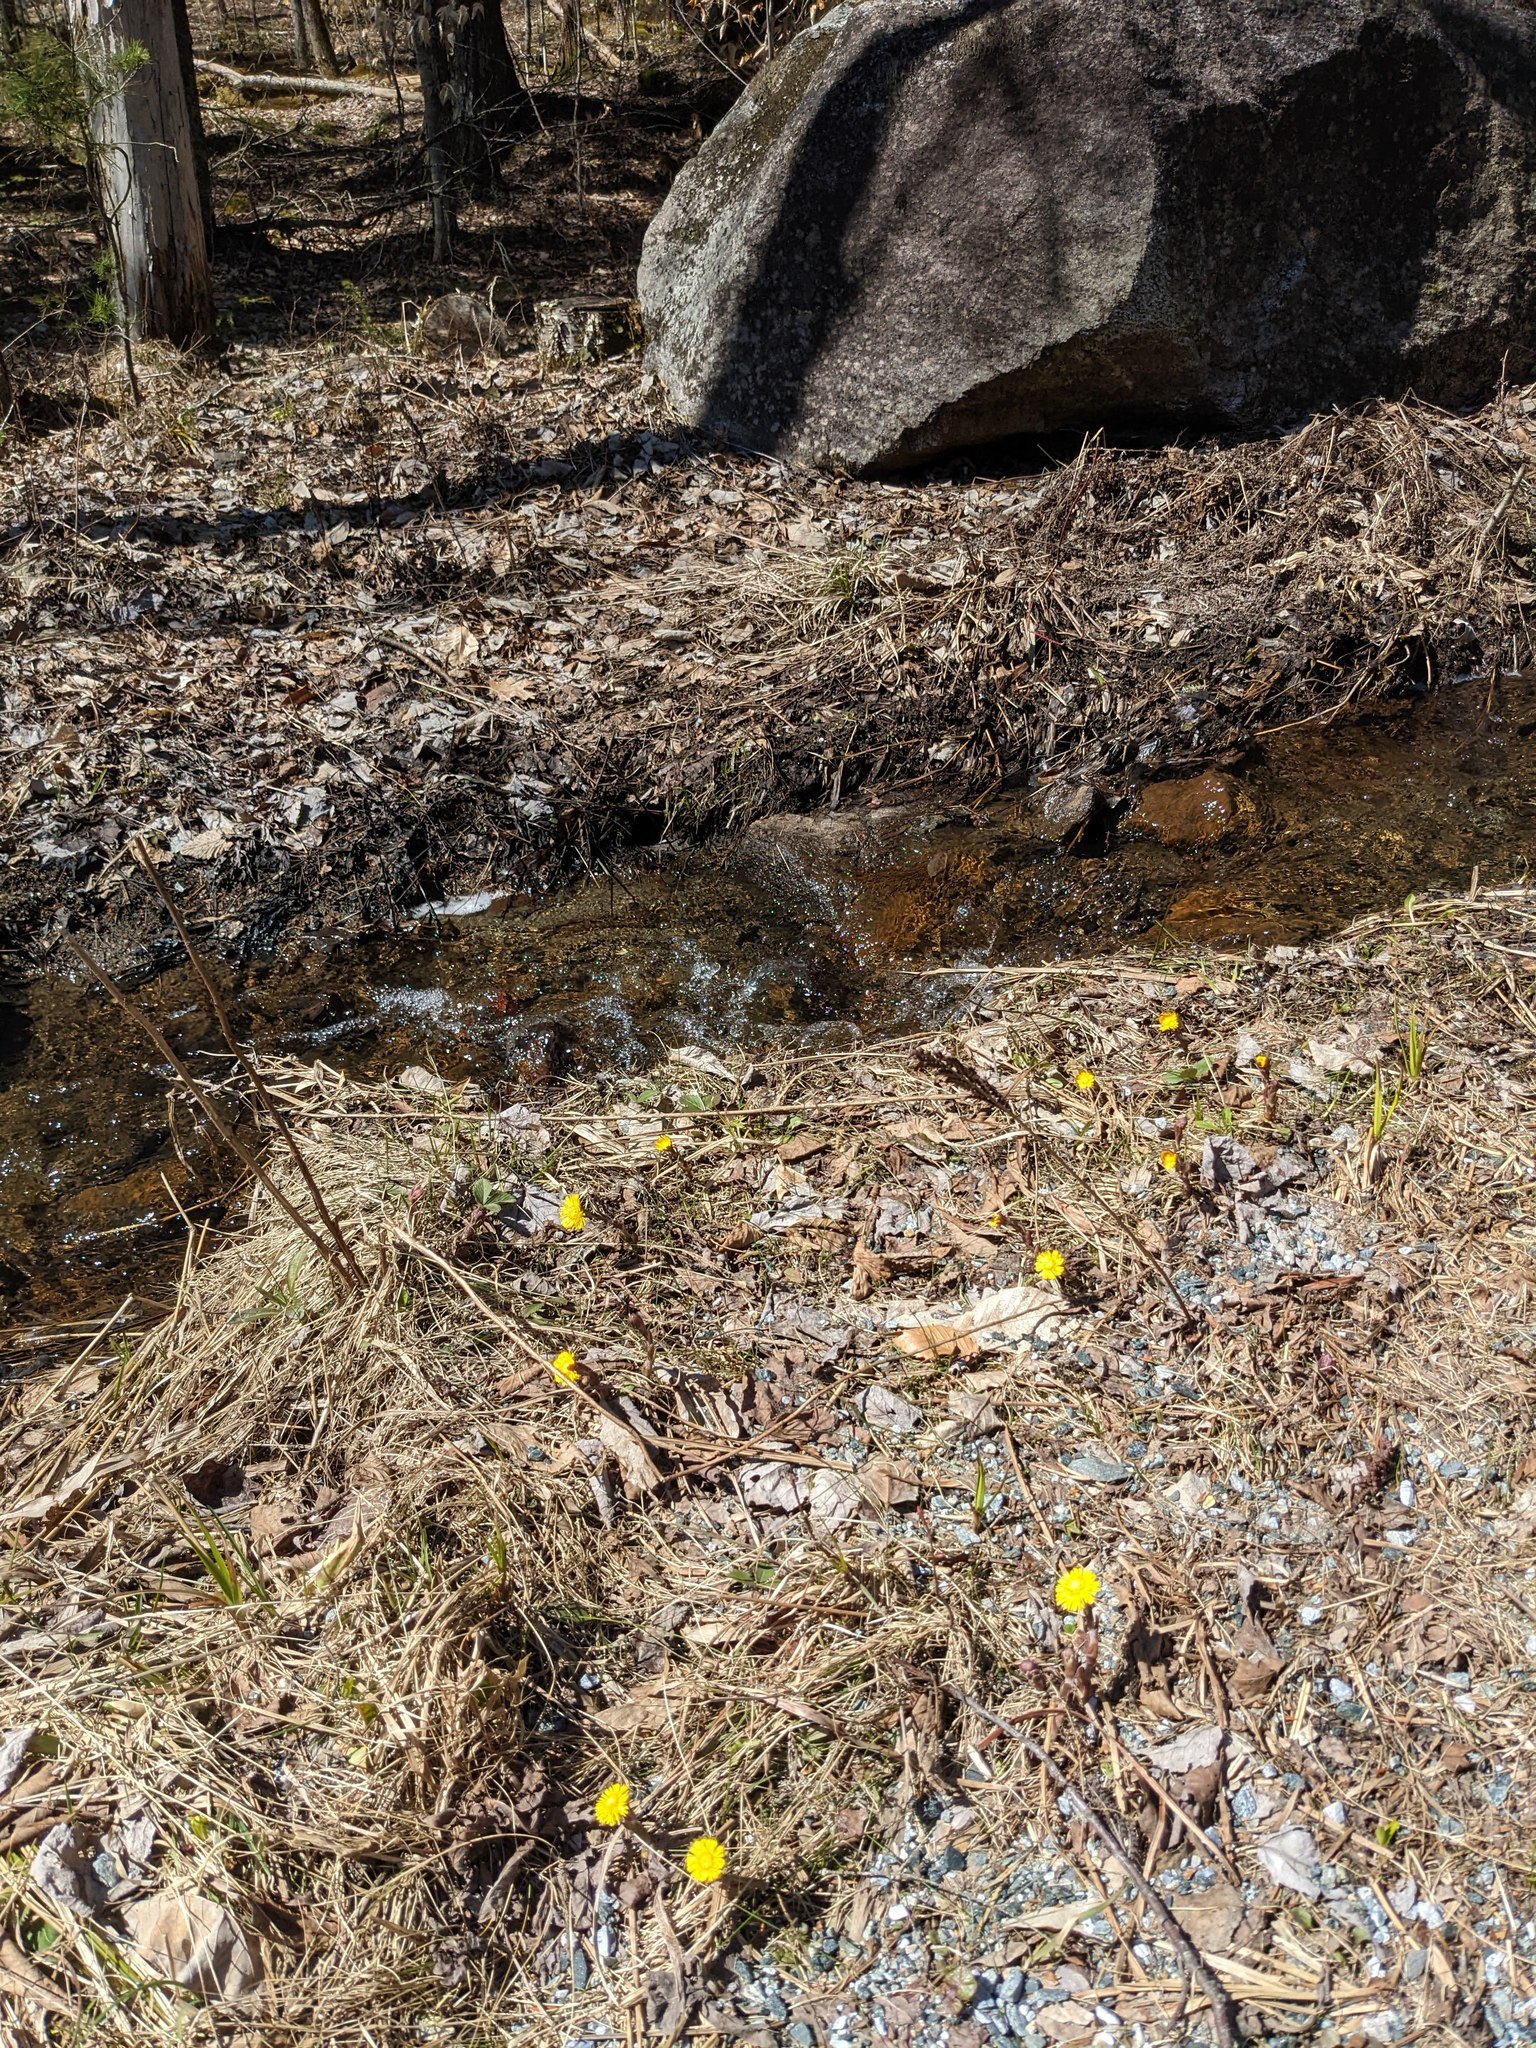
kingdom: Plantae
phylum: Tracheophyta
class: Magnoliopsida
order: Asterales
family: Asteraceae
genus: Tussilago
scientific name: Tussilago farfara
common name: Coltsfoot
